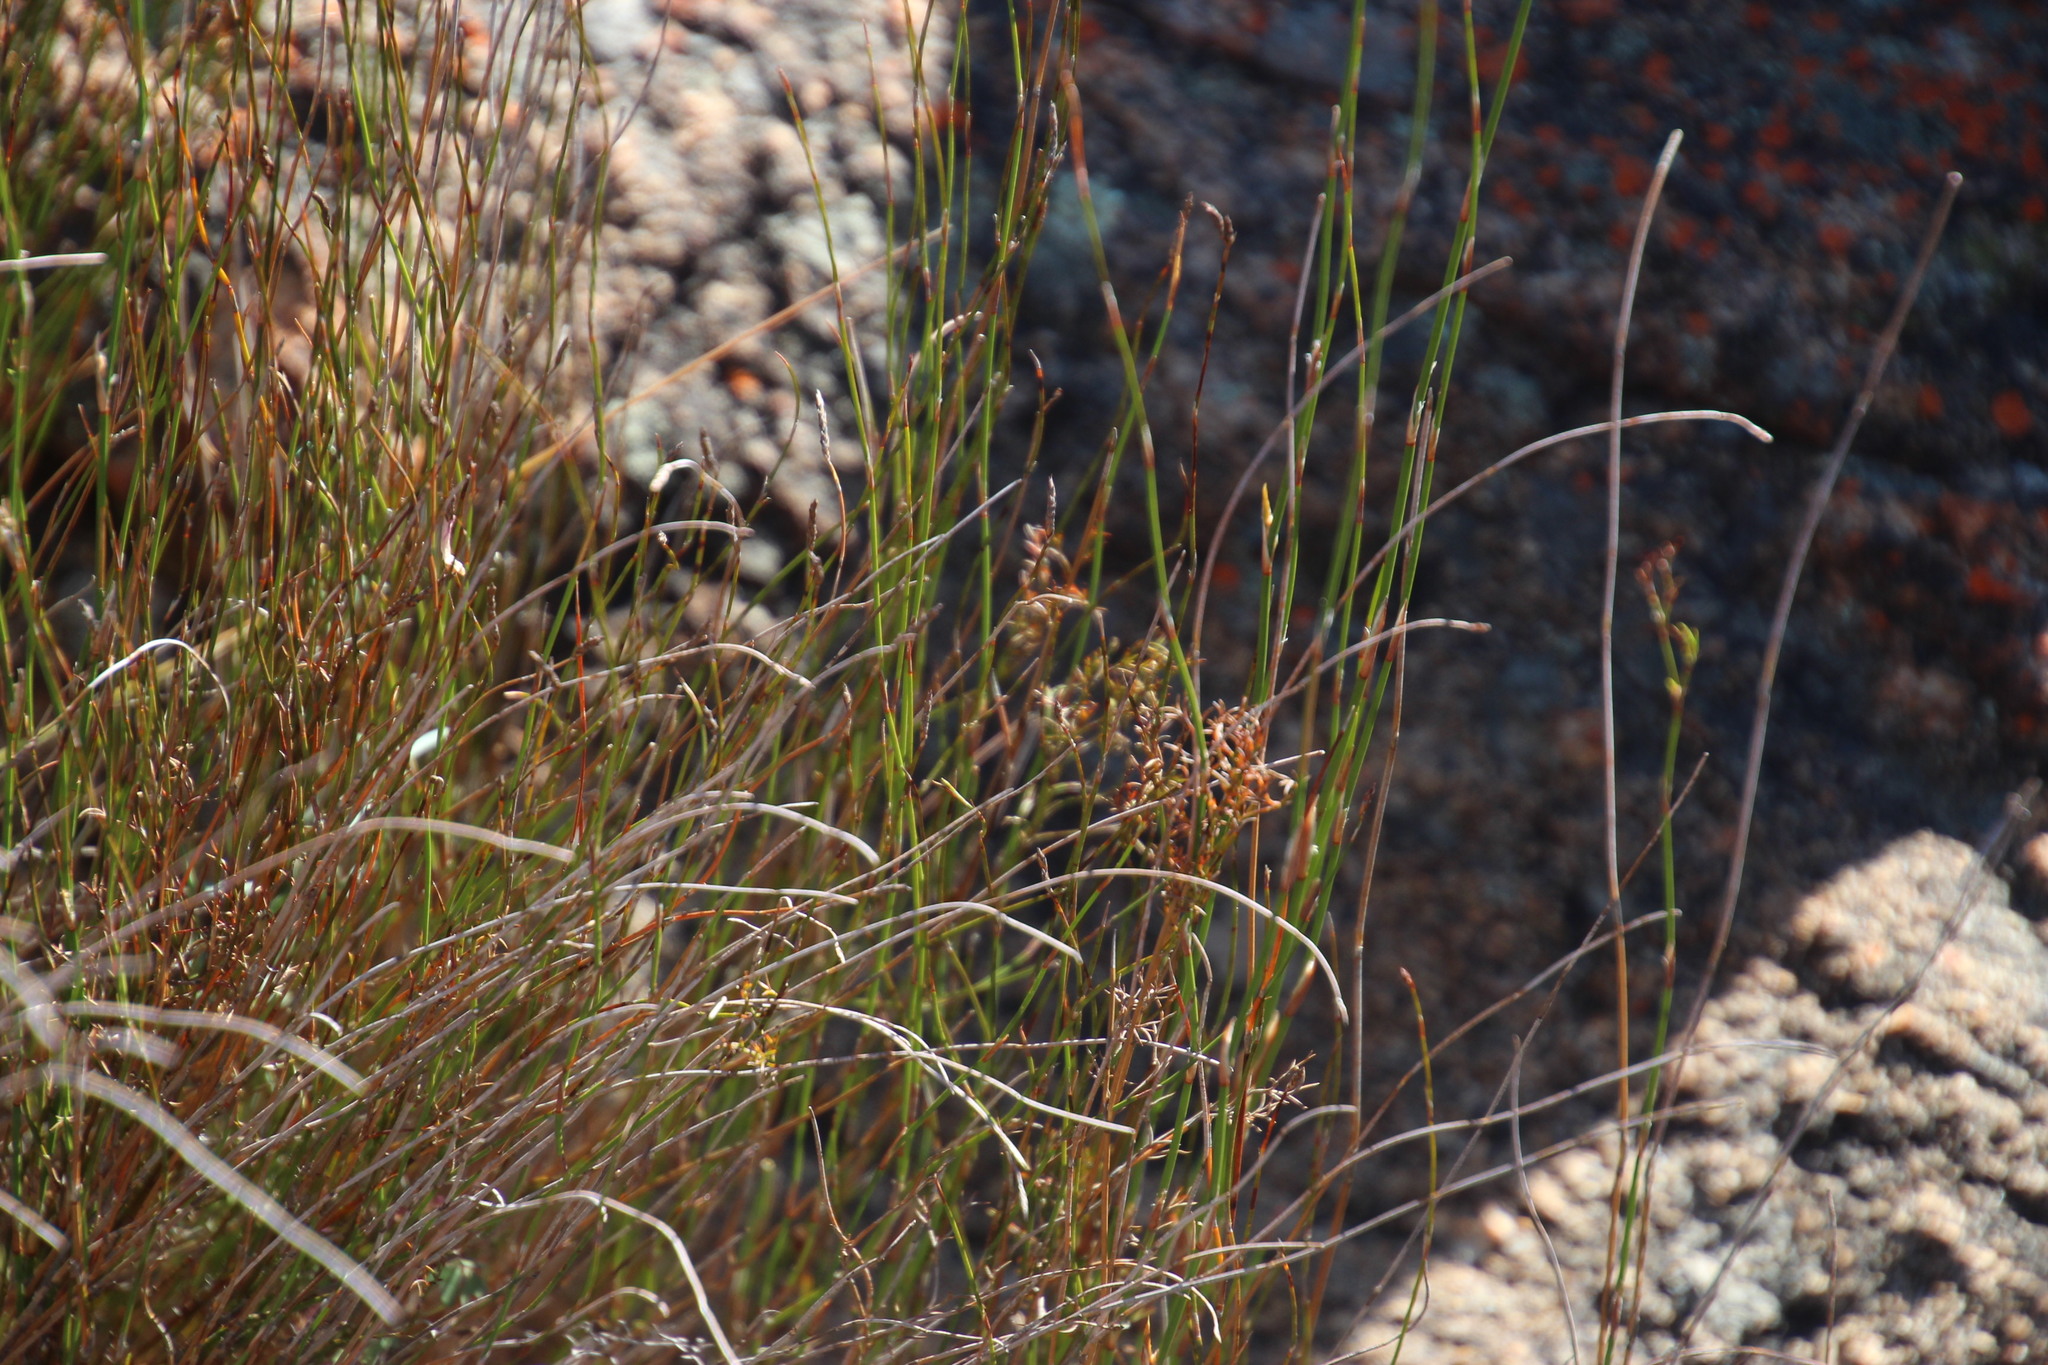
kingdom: Plantae
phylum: Tracheophyta
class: Liliopsida
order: Poales
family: Restionaceae
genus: Restio
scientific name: Restio vilis
